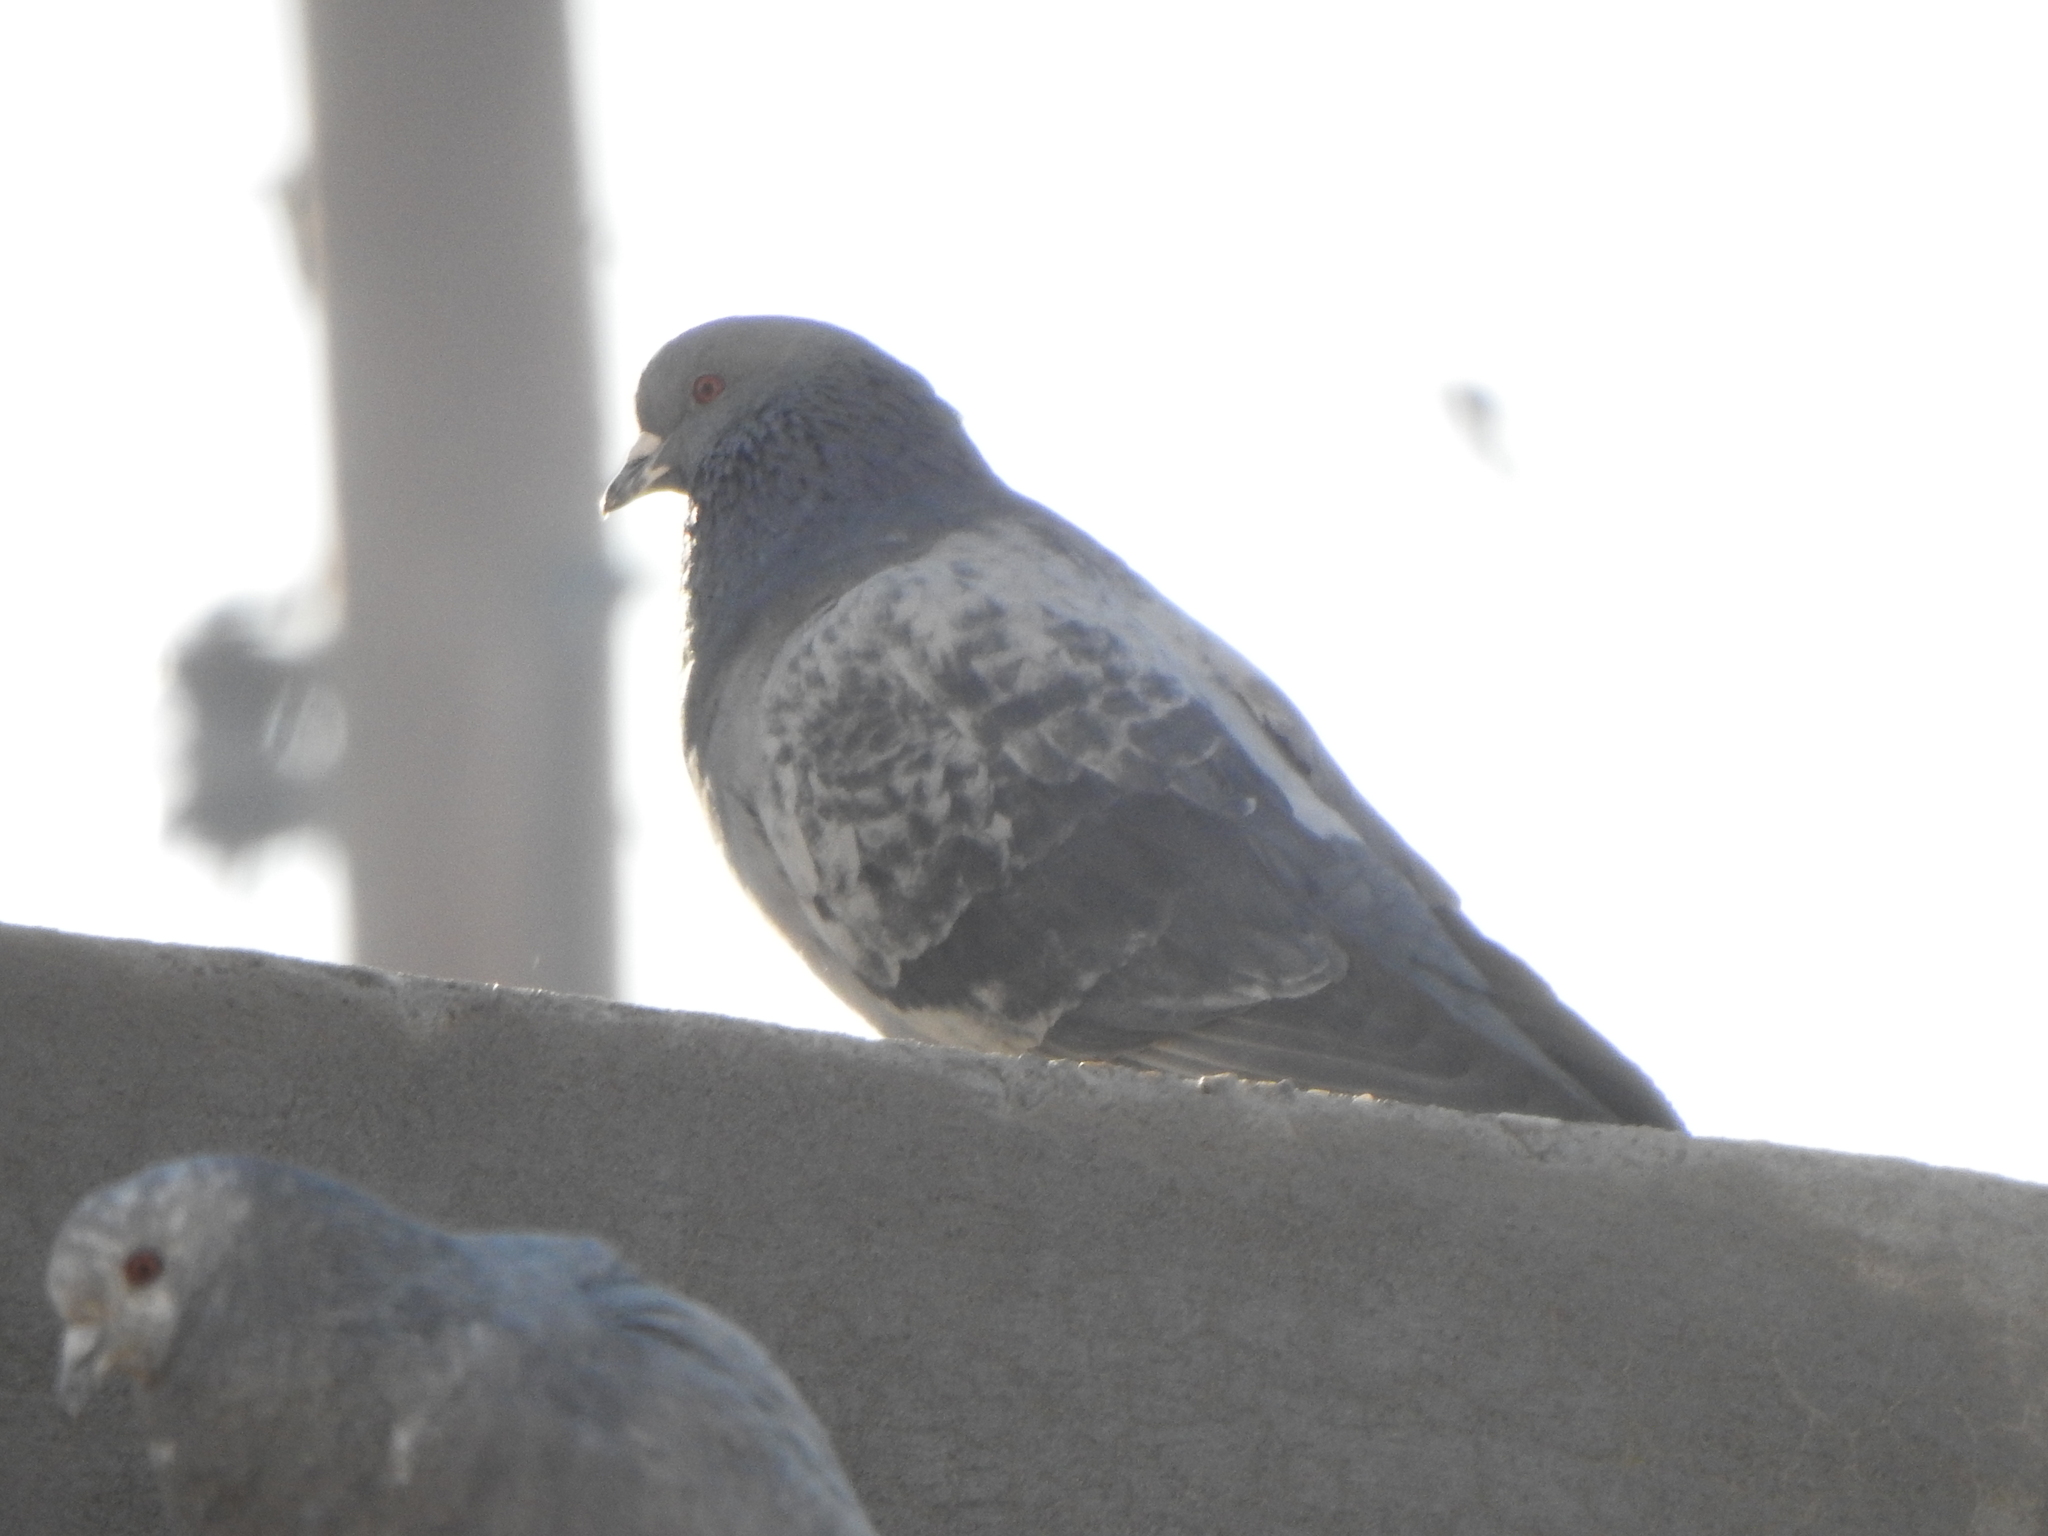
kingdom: Animalia
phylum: Chordata
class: Aves
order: Columbiformes
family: Columbidae
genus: Columba
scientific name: Columba livia
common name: Rock pigeon
